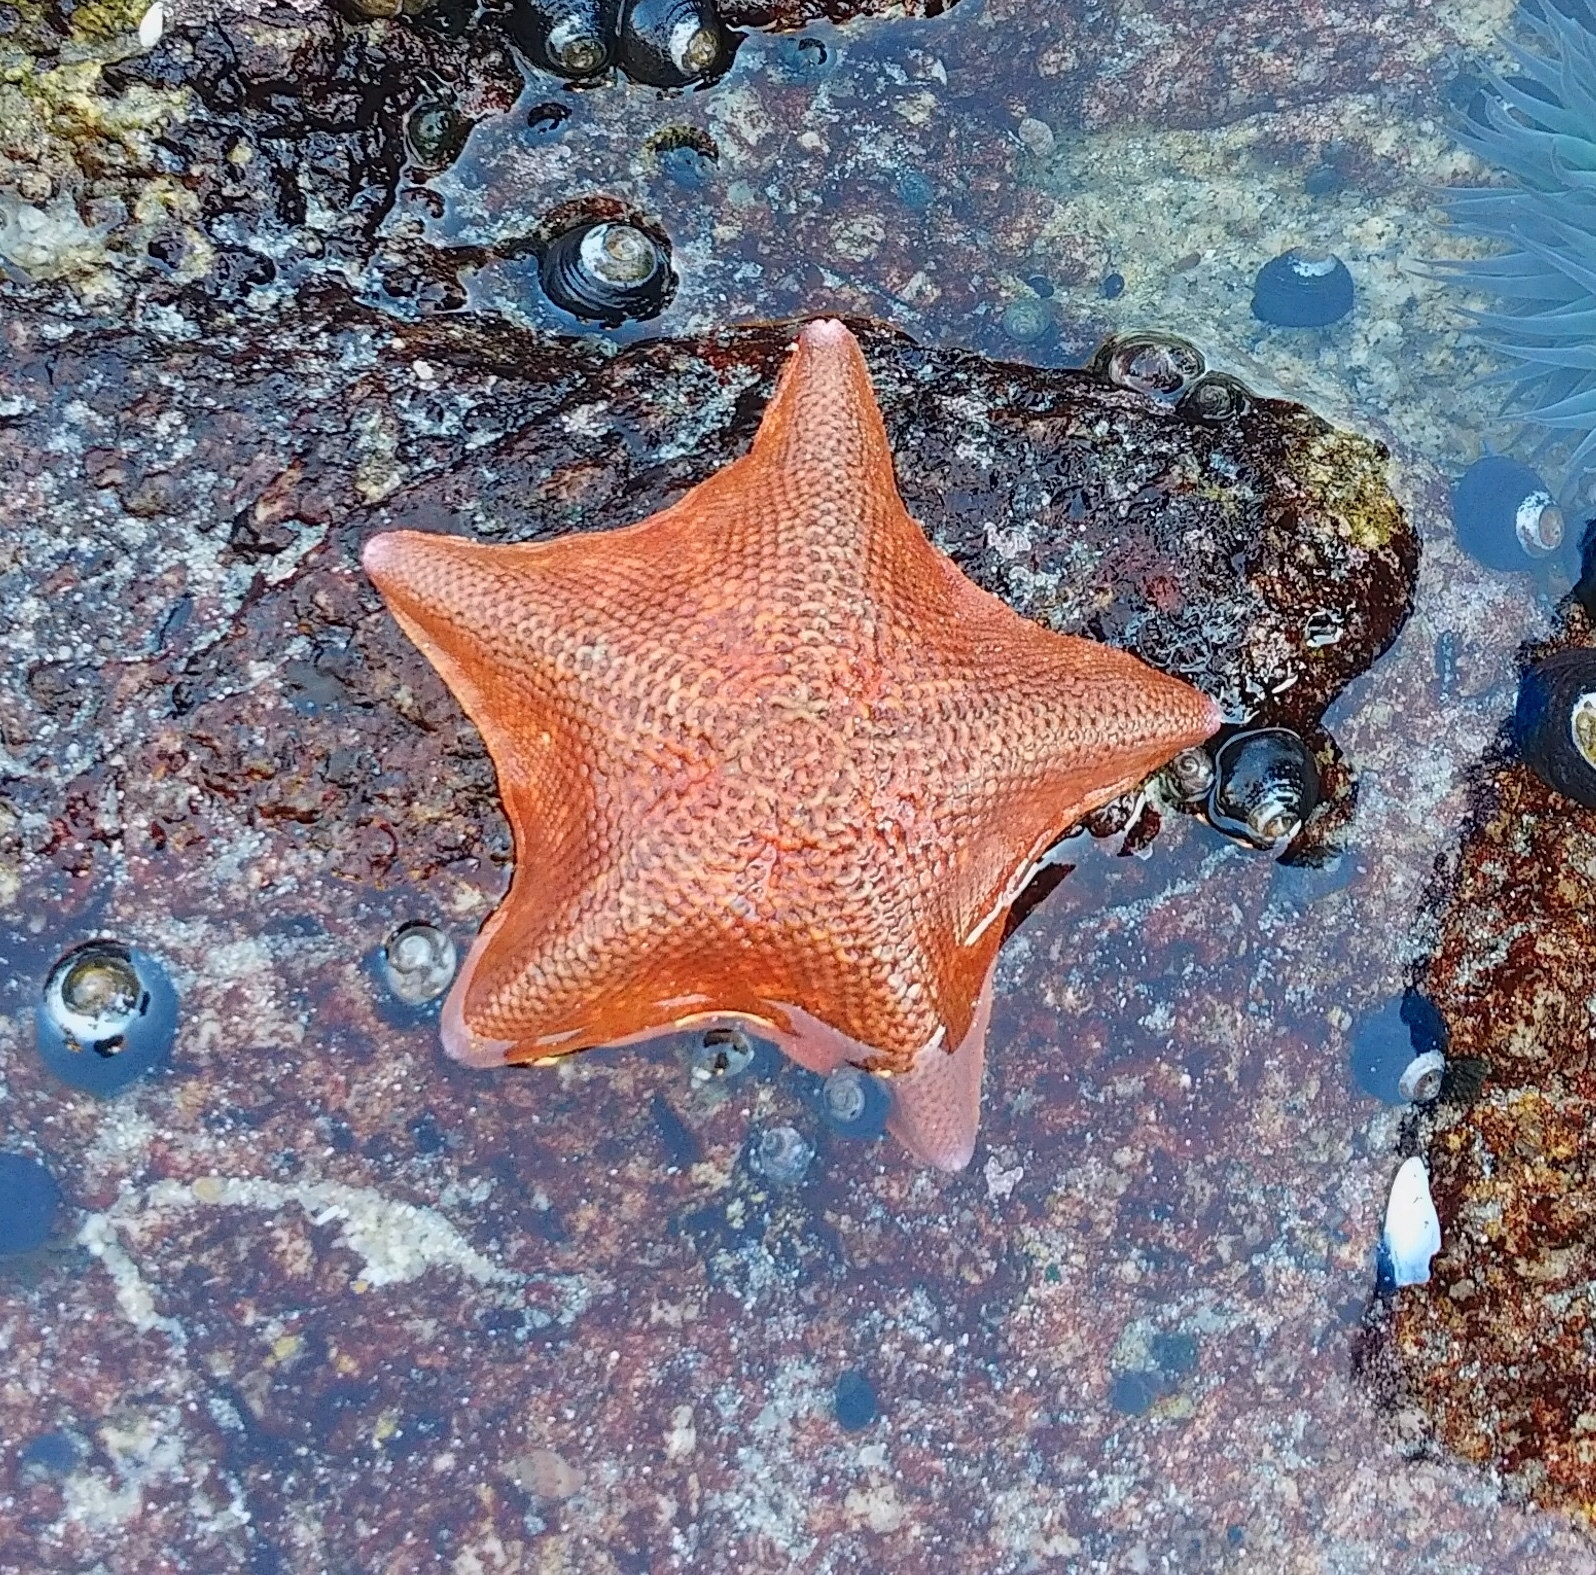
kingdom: Animalia
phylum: Echinodermata
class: Asteroidea
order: Valvatida
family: Asterinidae
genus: Patiria
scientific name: Patiria miniata
